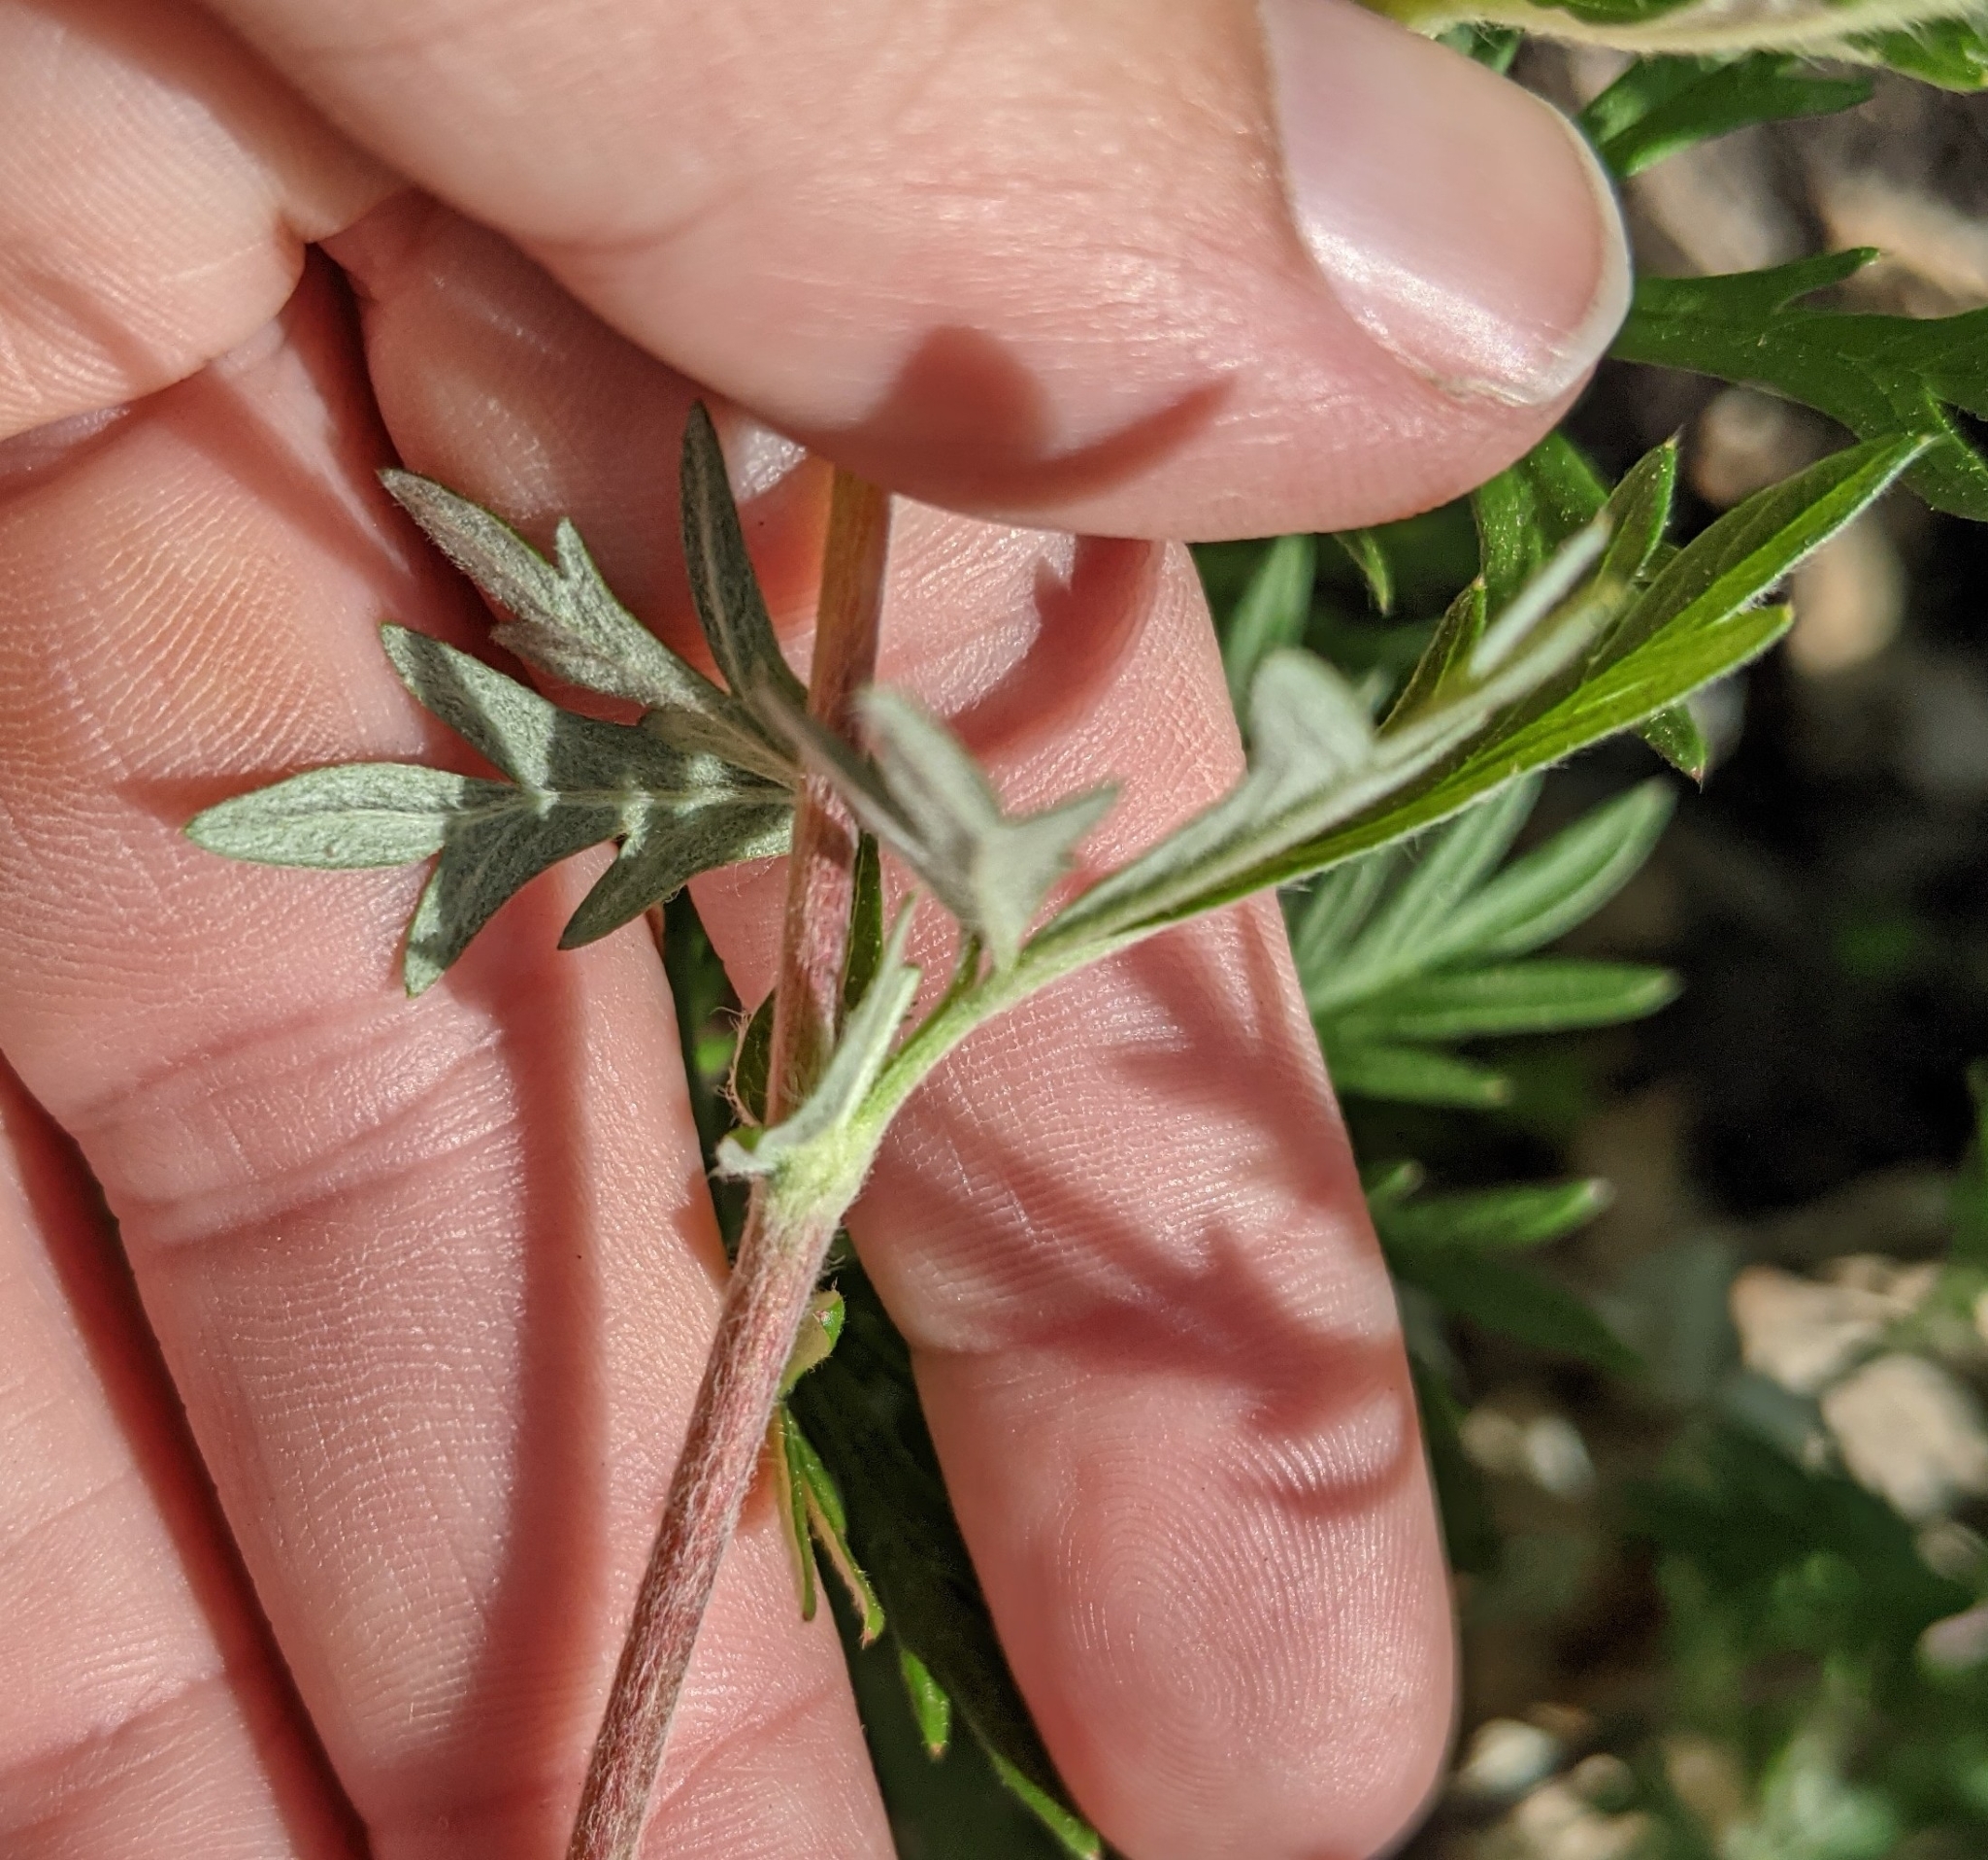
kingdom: Plantae
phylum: Tracheophyta
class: Magnoliopsida
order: Rosales
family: Rosaceae
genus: Potentilla
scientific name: Potentilla argentea
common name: Hoary cinquefoil
